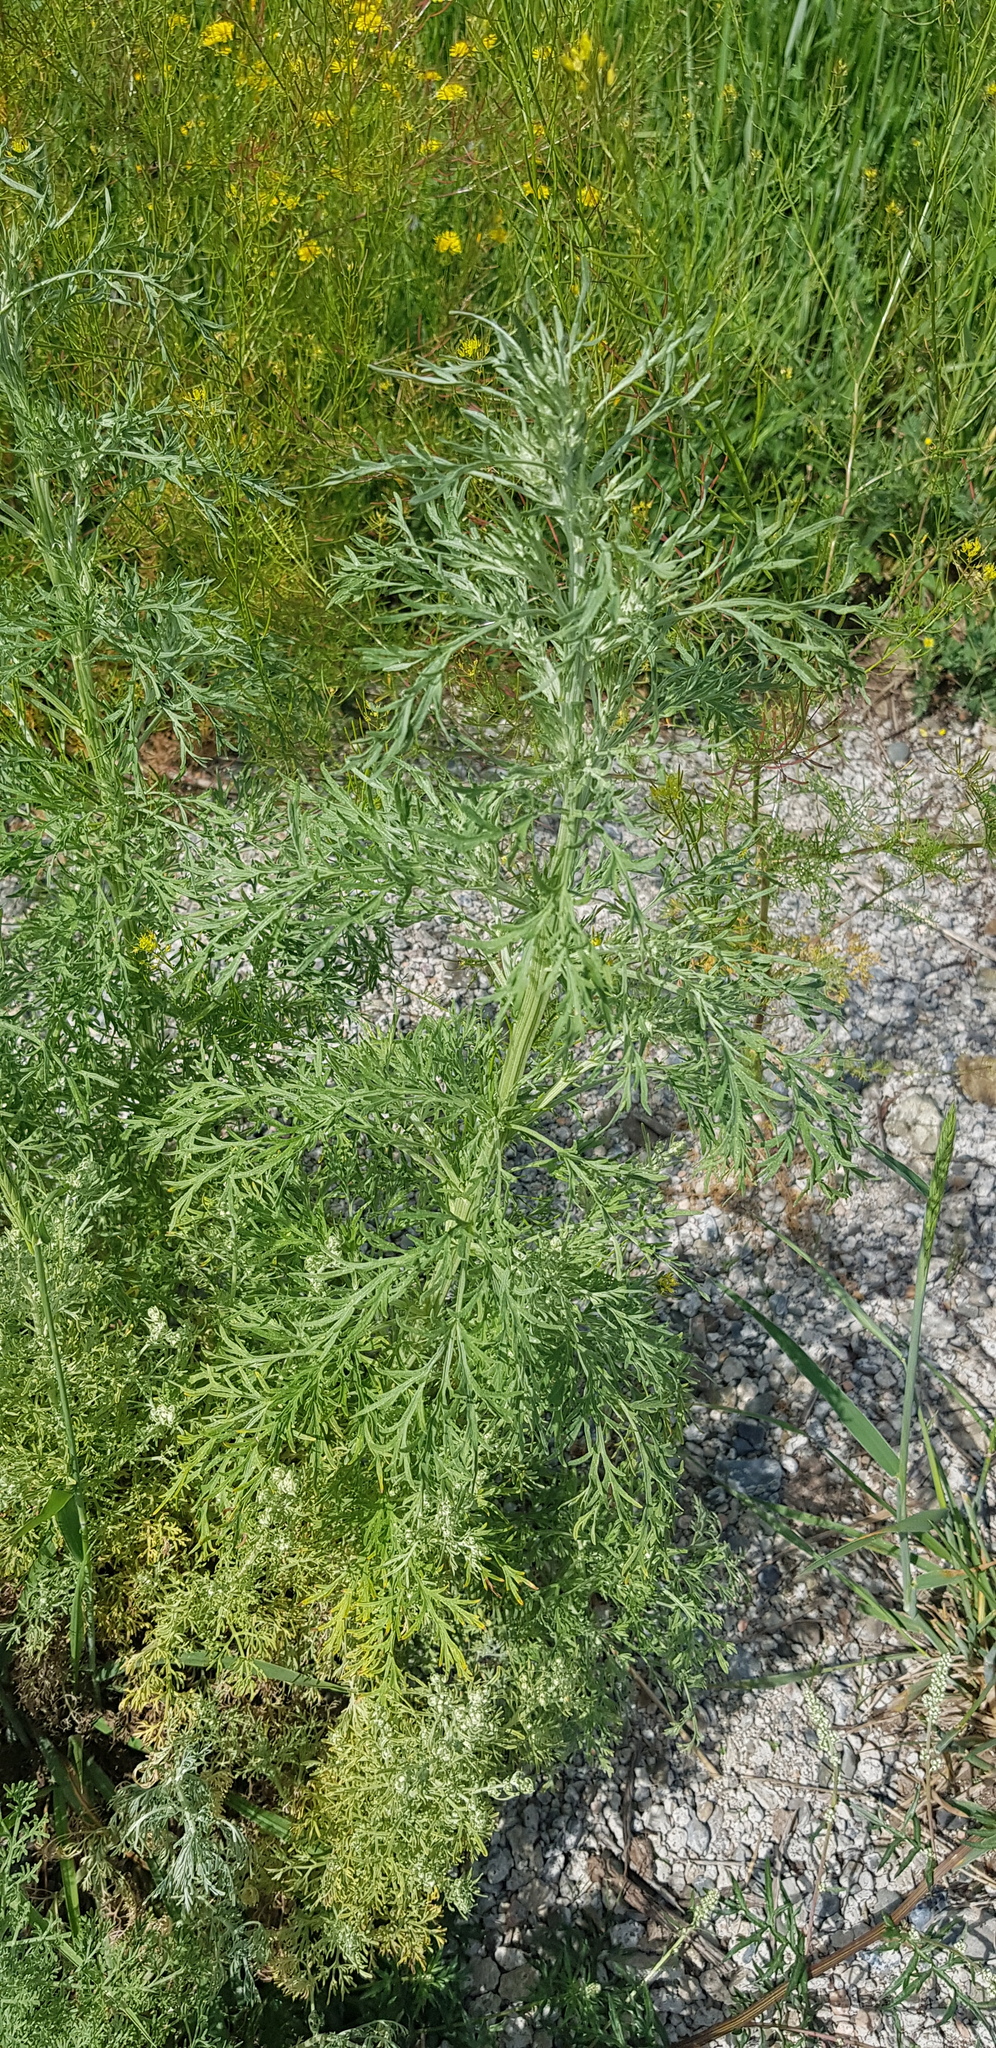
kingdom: Plantae
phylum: Tracheophyta
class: Magnoliopsida
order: Asterales
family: Asteraceae
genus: Artemisia
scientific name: Artemisia sieversiana
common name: Sieversian wormwood
